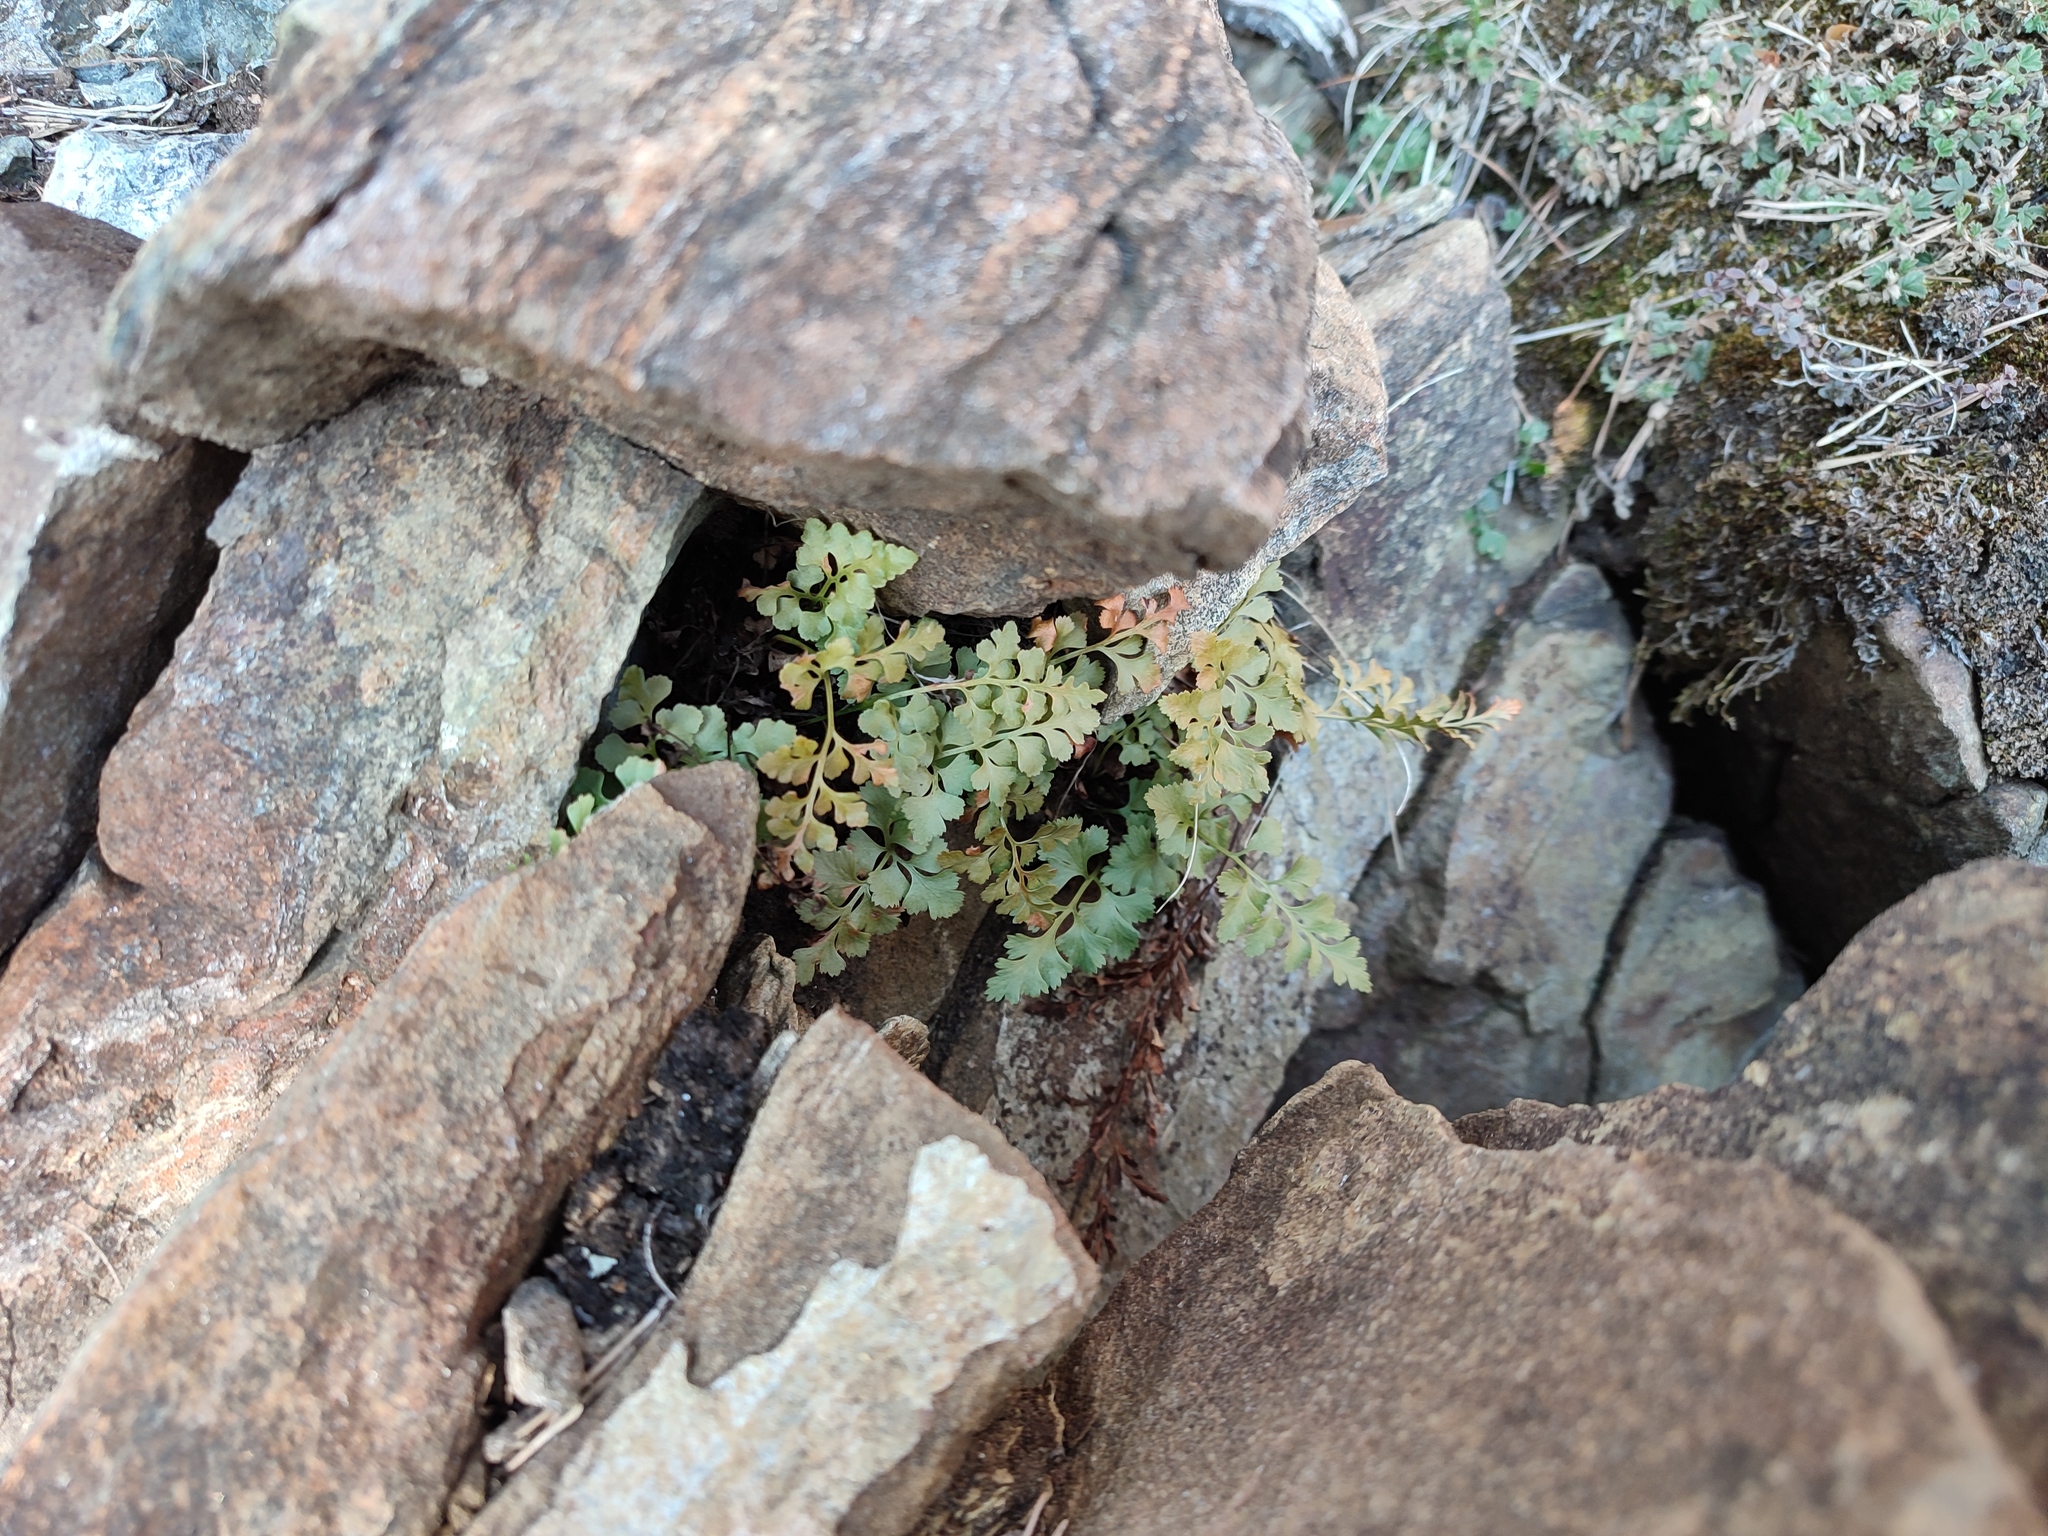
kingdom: Plantae
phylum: Tracheophyta
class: Polypodiopsida
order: Polypodiales
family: Aspleniaceae
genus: Asplenium
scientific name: Asplenium cuneifolium
